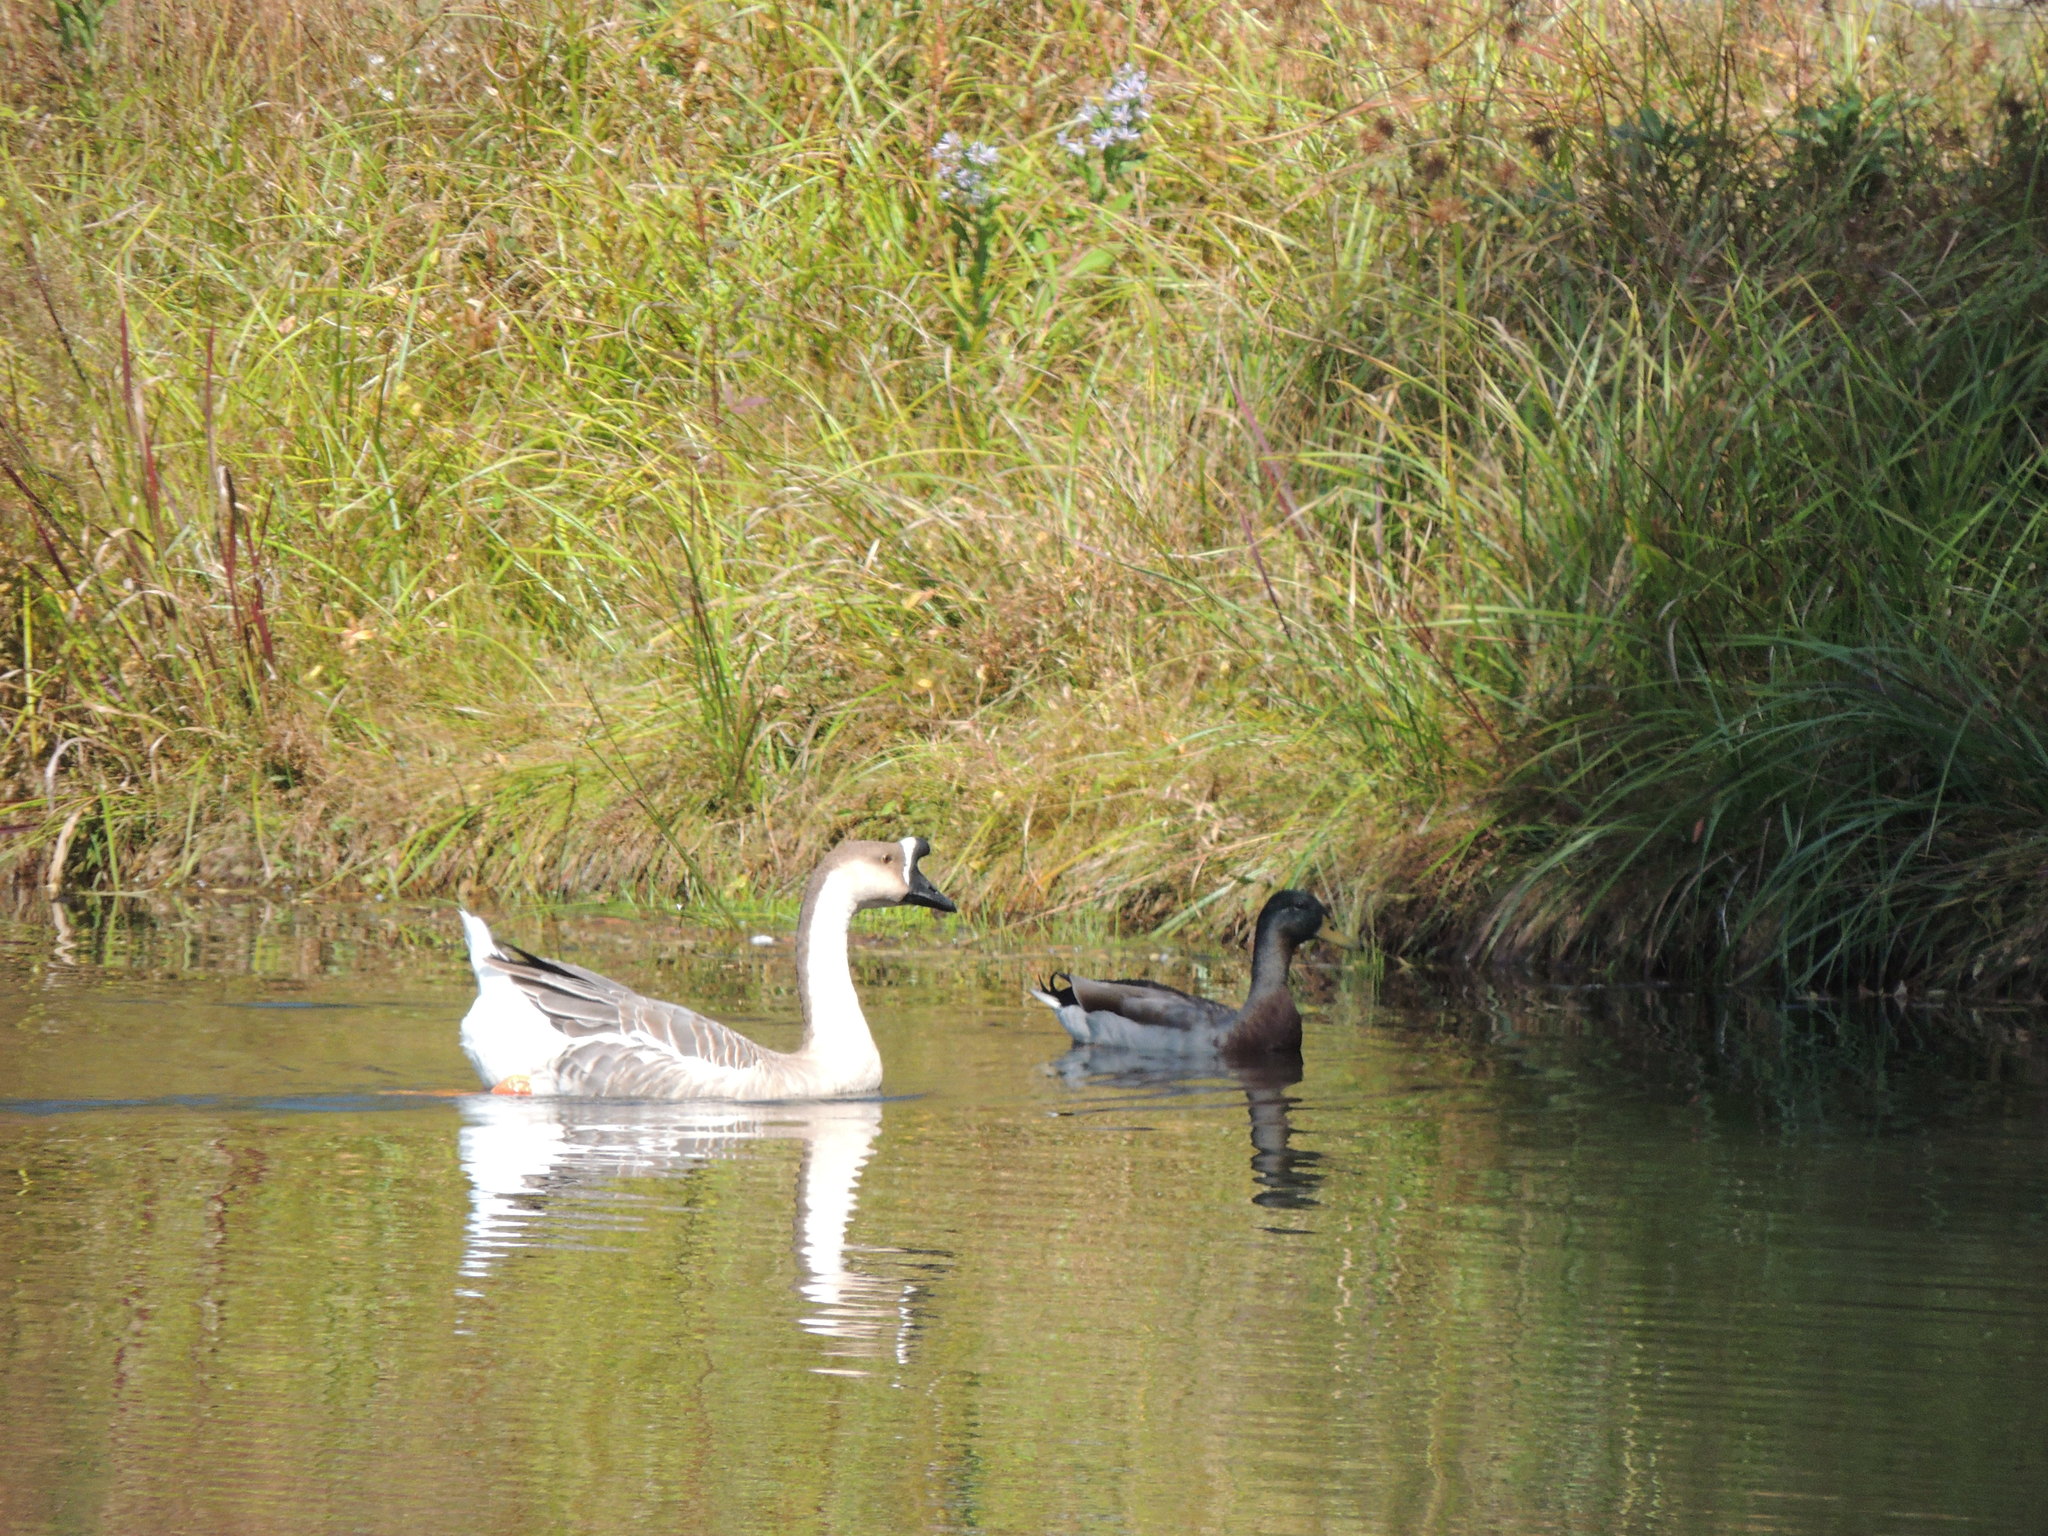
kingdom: Animalia
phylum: Chordata
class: Aves
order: Anseriformes
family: Anatidae
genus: Anas
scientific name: Anas platyrhynchos
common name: Mallard
